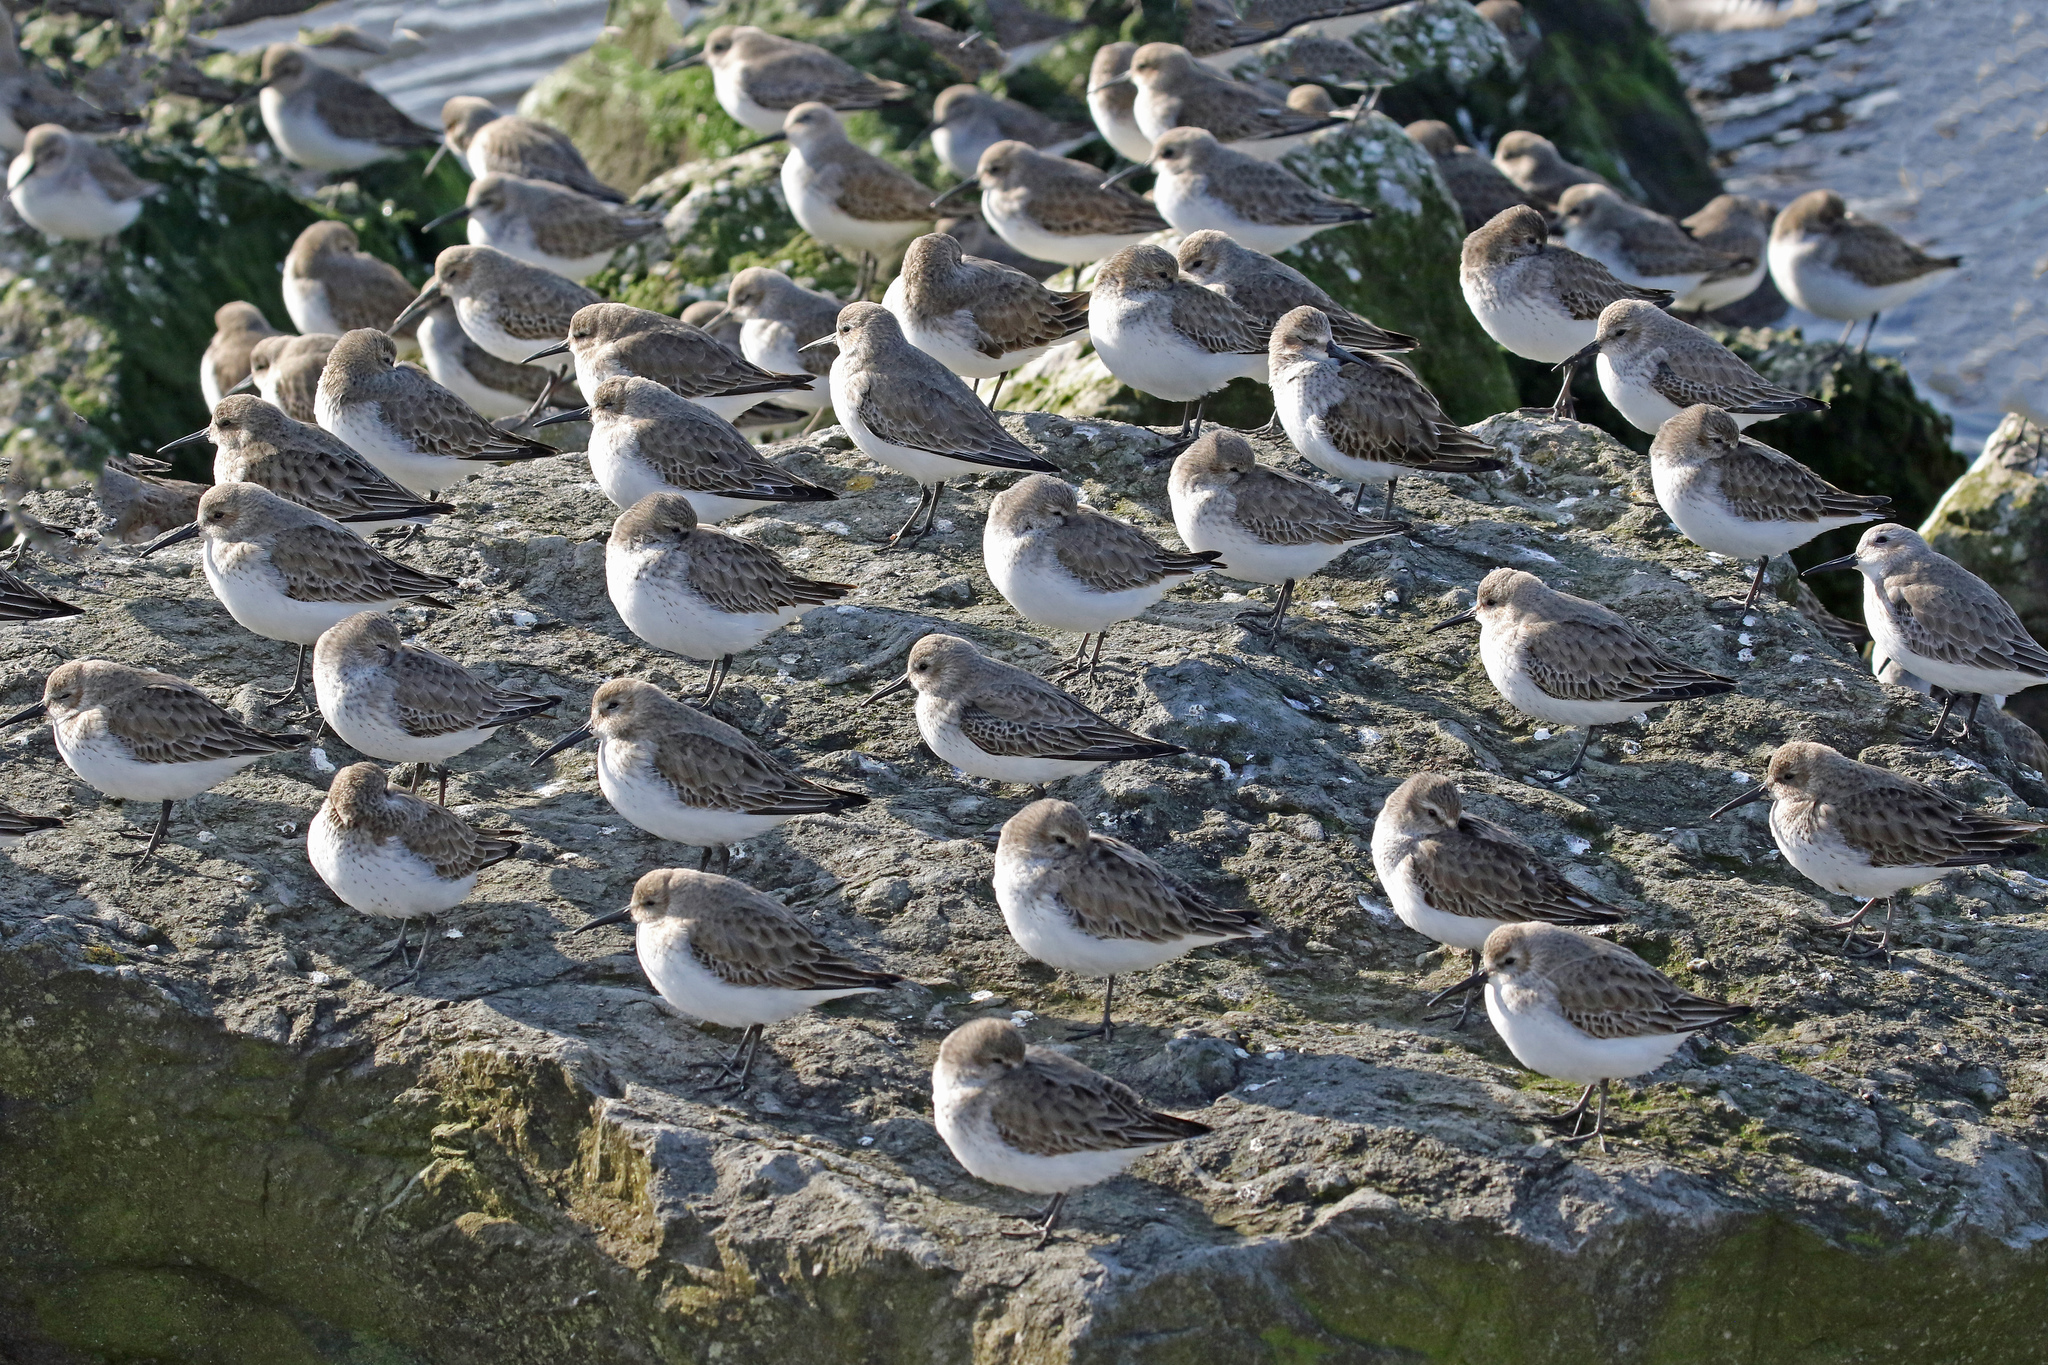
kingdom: Animalia
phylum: Chordata
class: Aves
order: Charadriiformes
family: Scolopacidae
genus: Calidris
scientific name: Calidris alpina
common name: Dunlin
